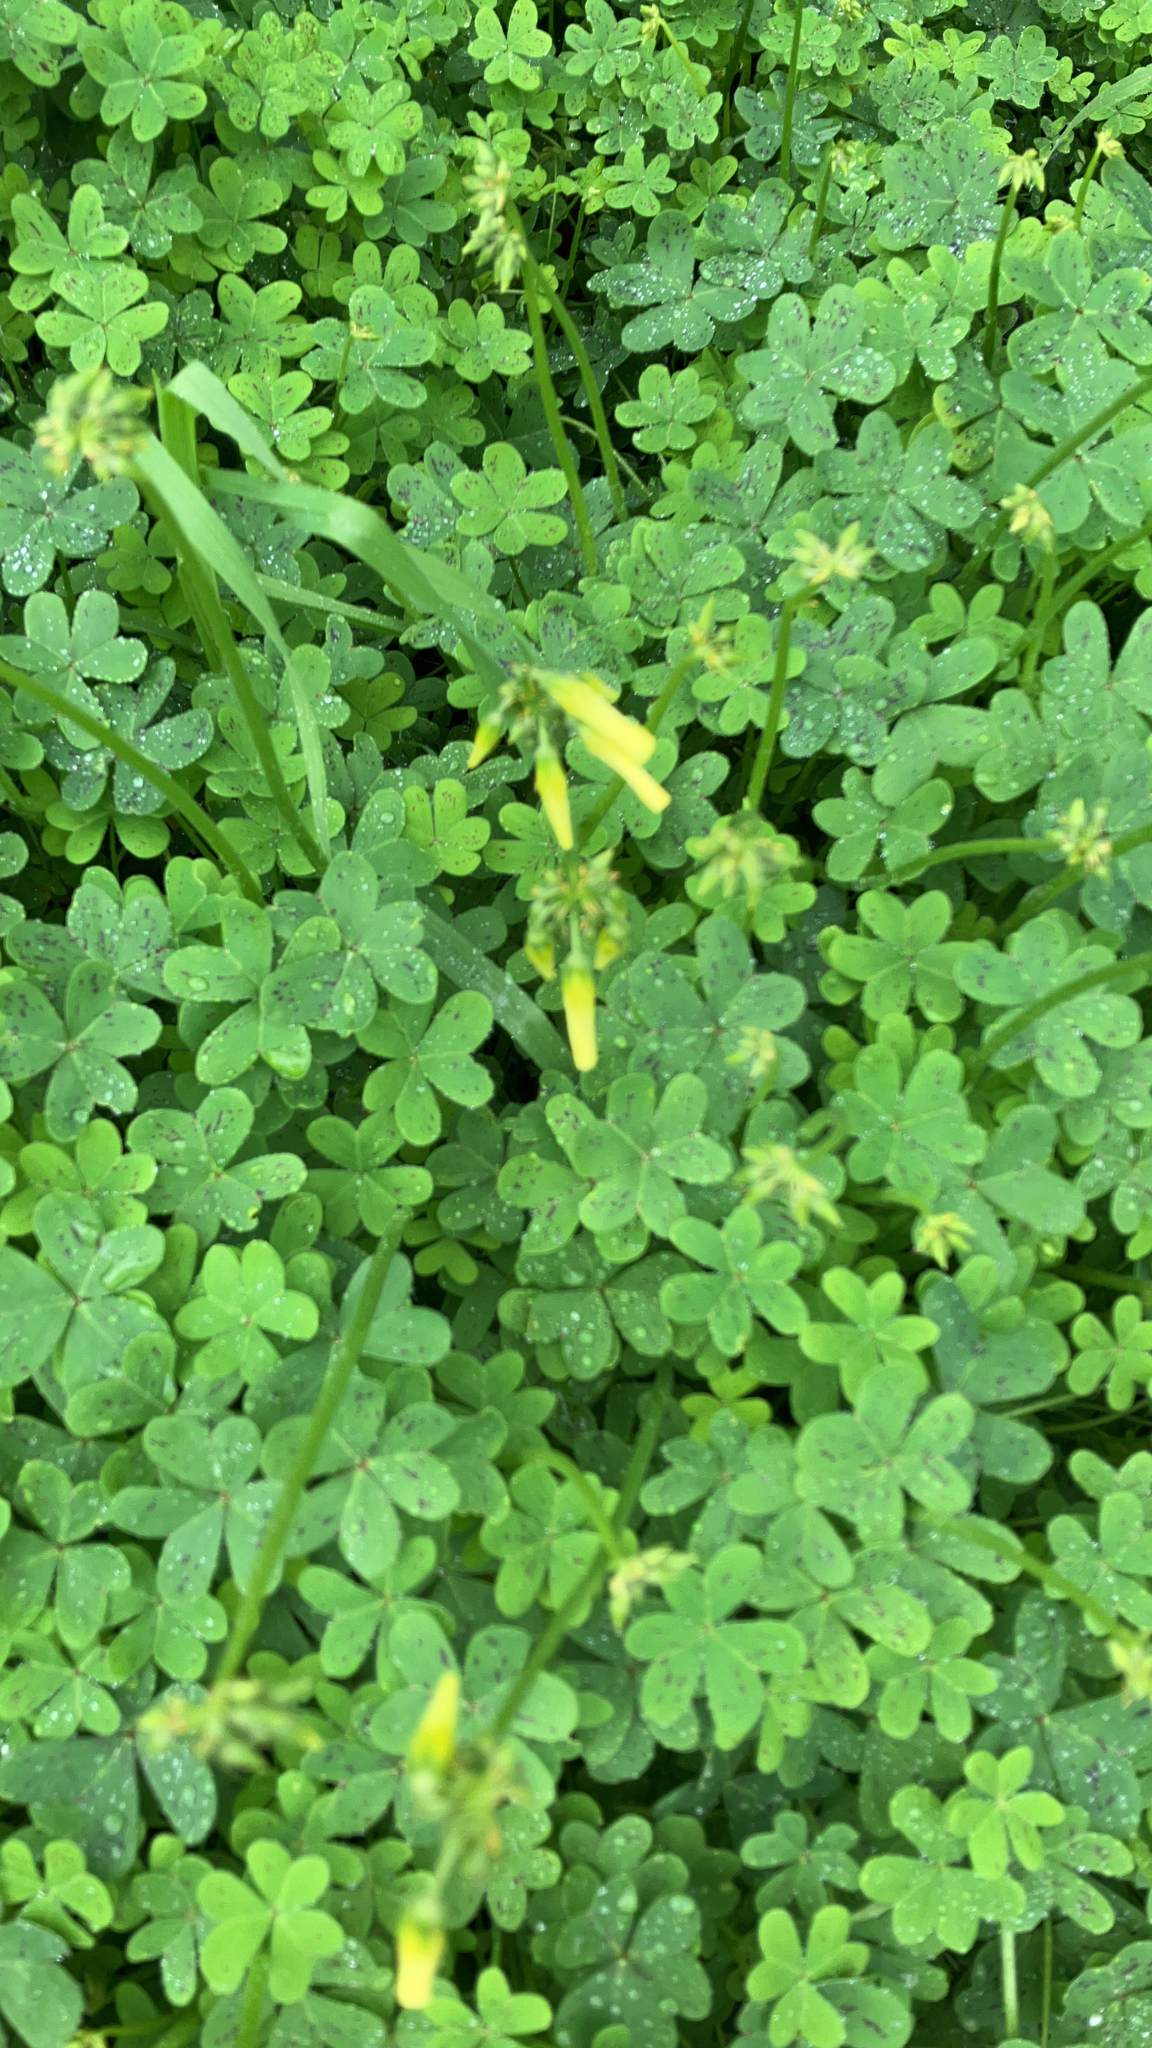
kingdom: Plantae
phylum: Tracheophyta
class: Magnoliopsida
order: Oxalidales
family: Oxalidaceae
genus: Oxalis
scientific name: Oxalis pes-caprae
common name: Bermuda-buttercup
